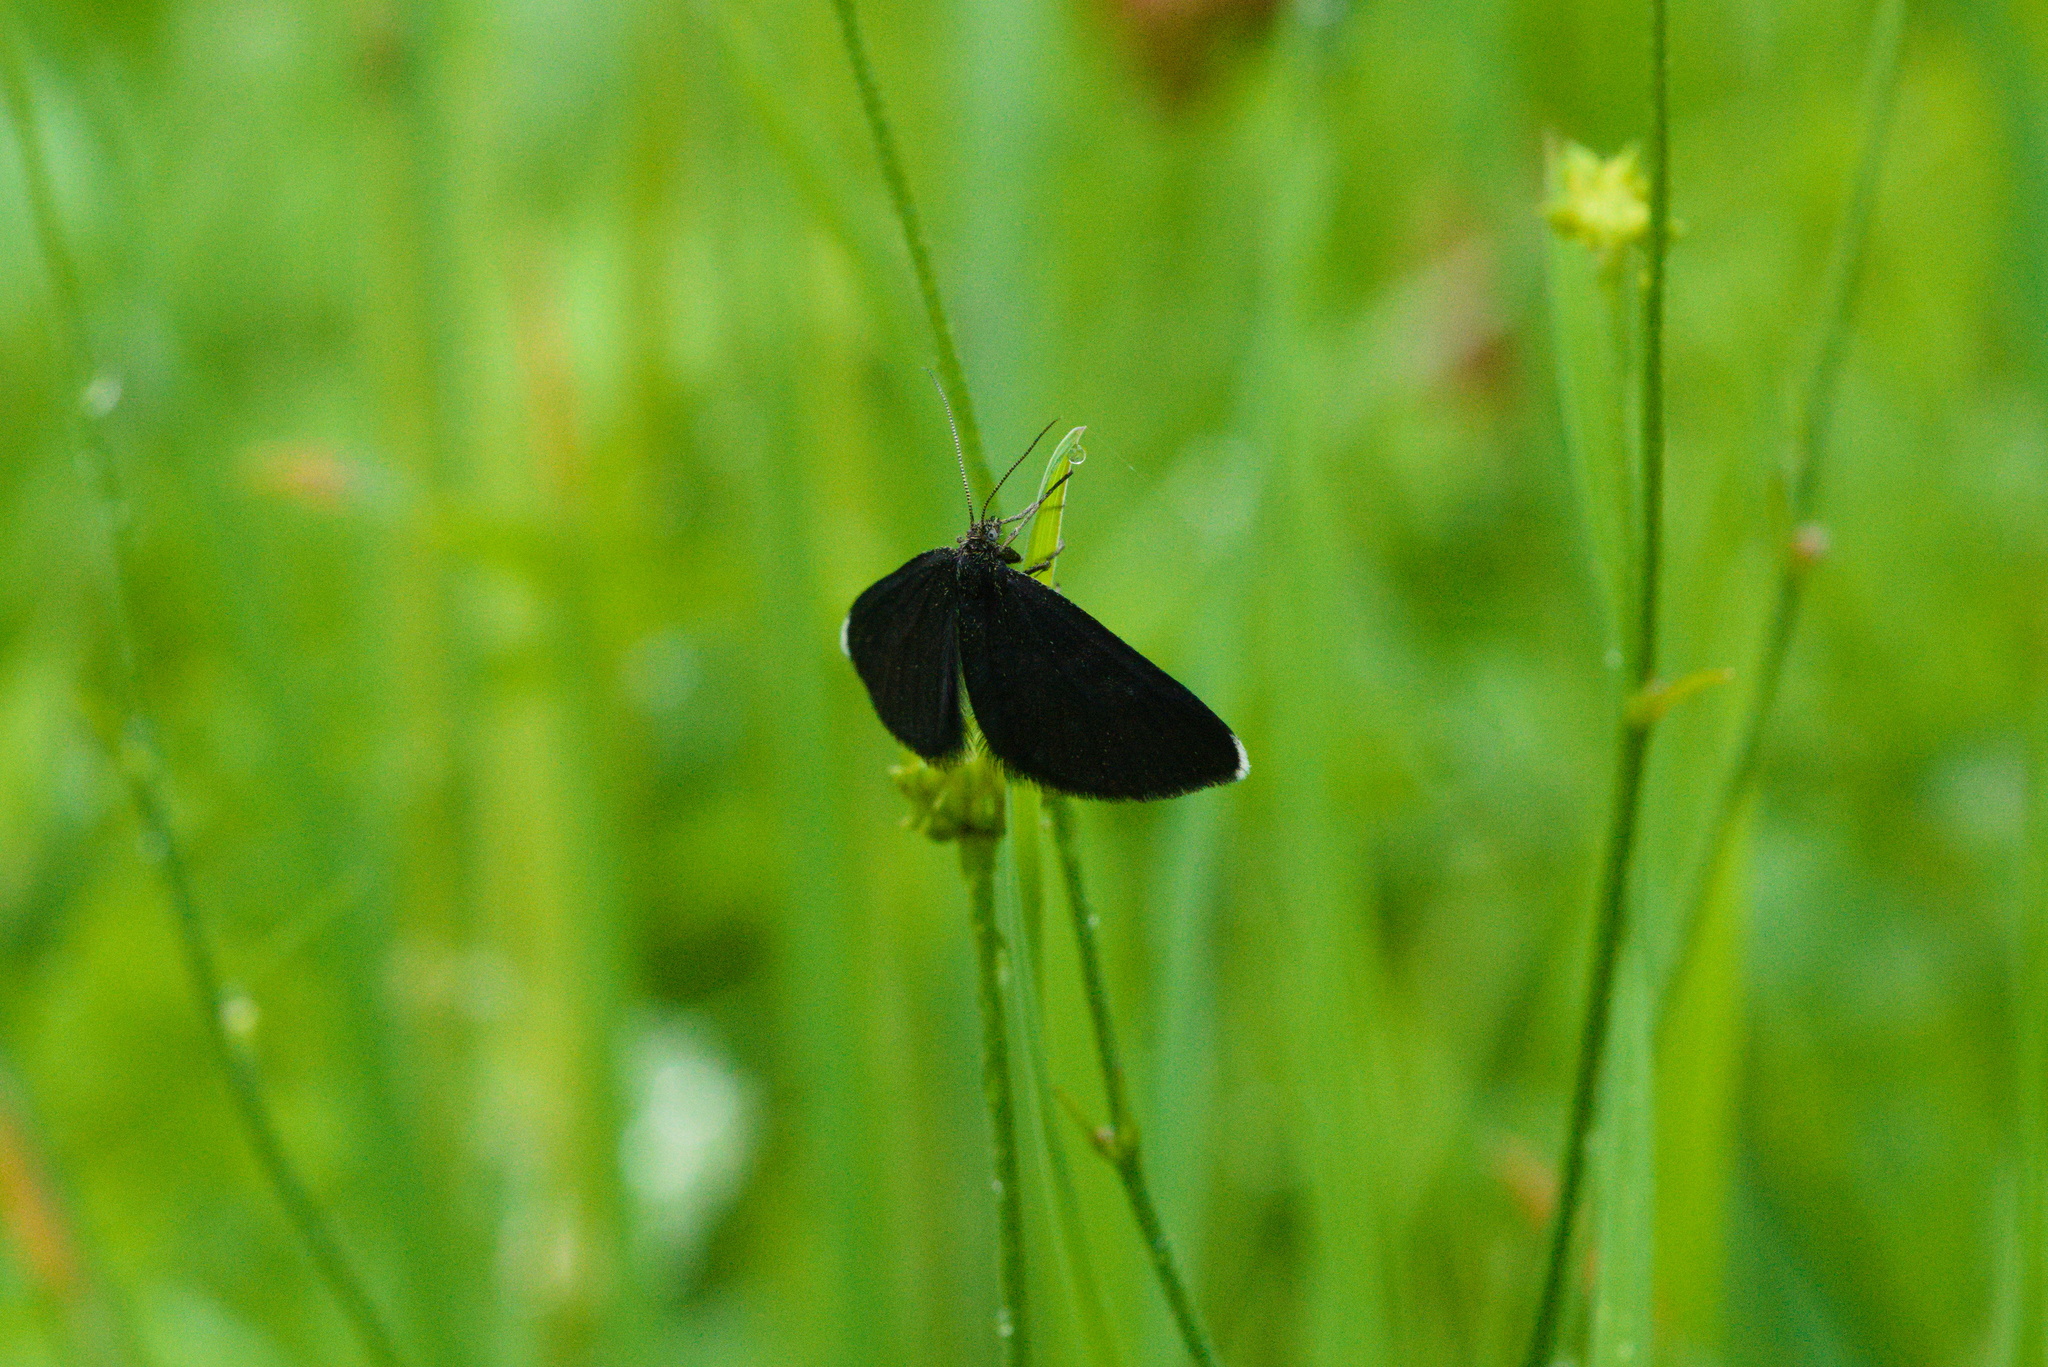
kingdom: Animalia
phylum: Arthropoda
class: Insecta
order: Lepidoptera
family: Geometridae
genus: Odezia
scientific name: Odezia atrata
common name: Chimney sweeper
